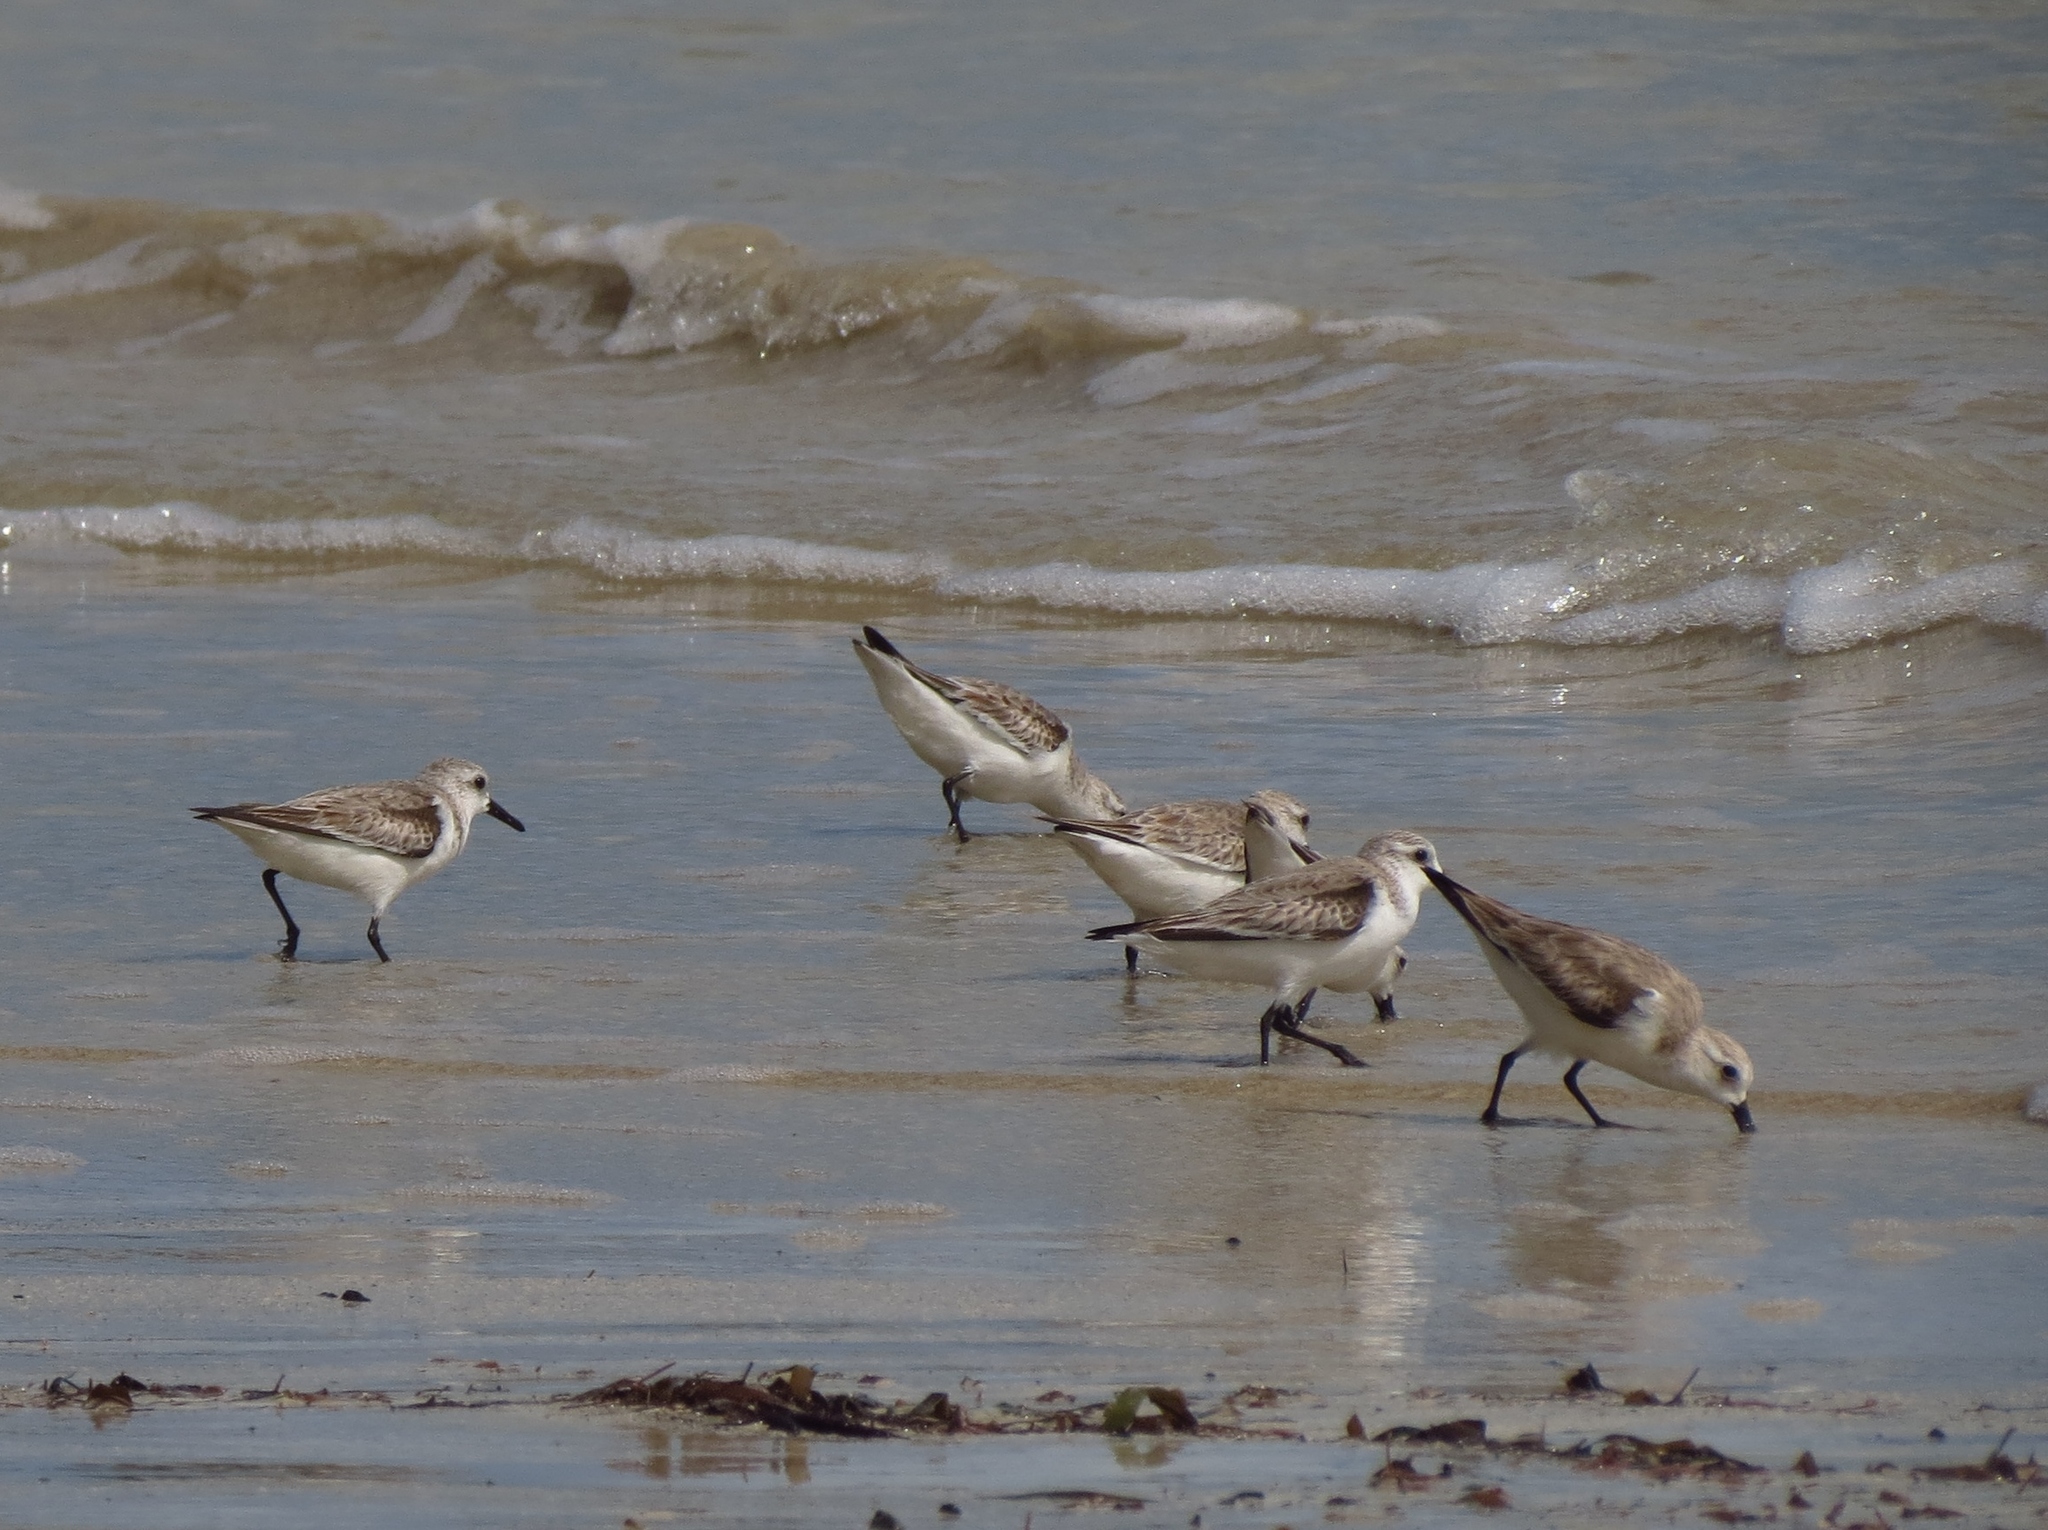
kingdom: Animalia
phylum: Chordata
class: Aves
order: Charadriiformes
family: Scolopacidae
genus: Calidris
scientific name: Calidris alba
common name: Sanderling
